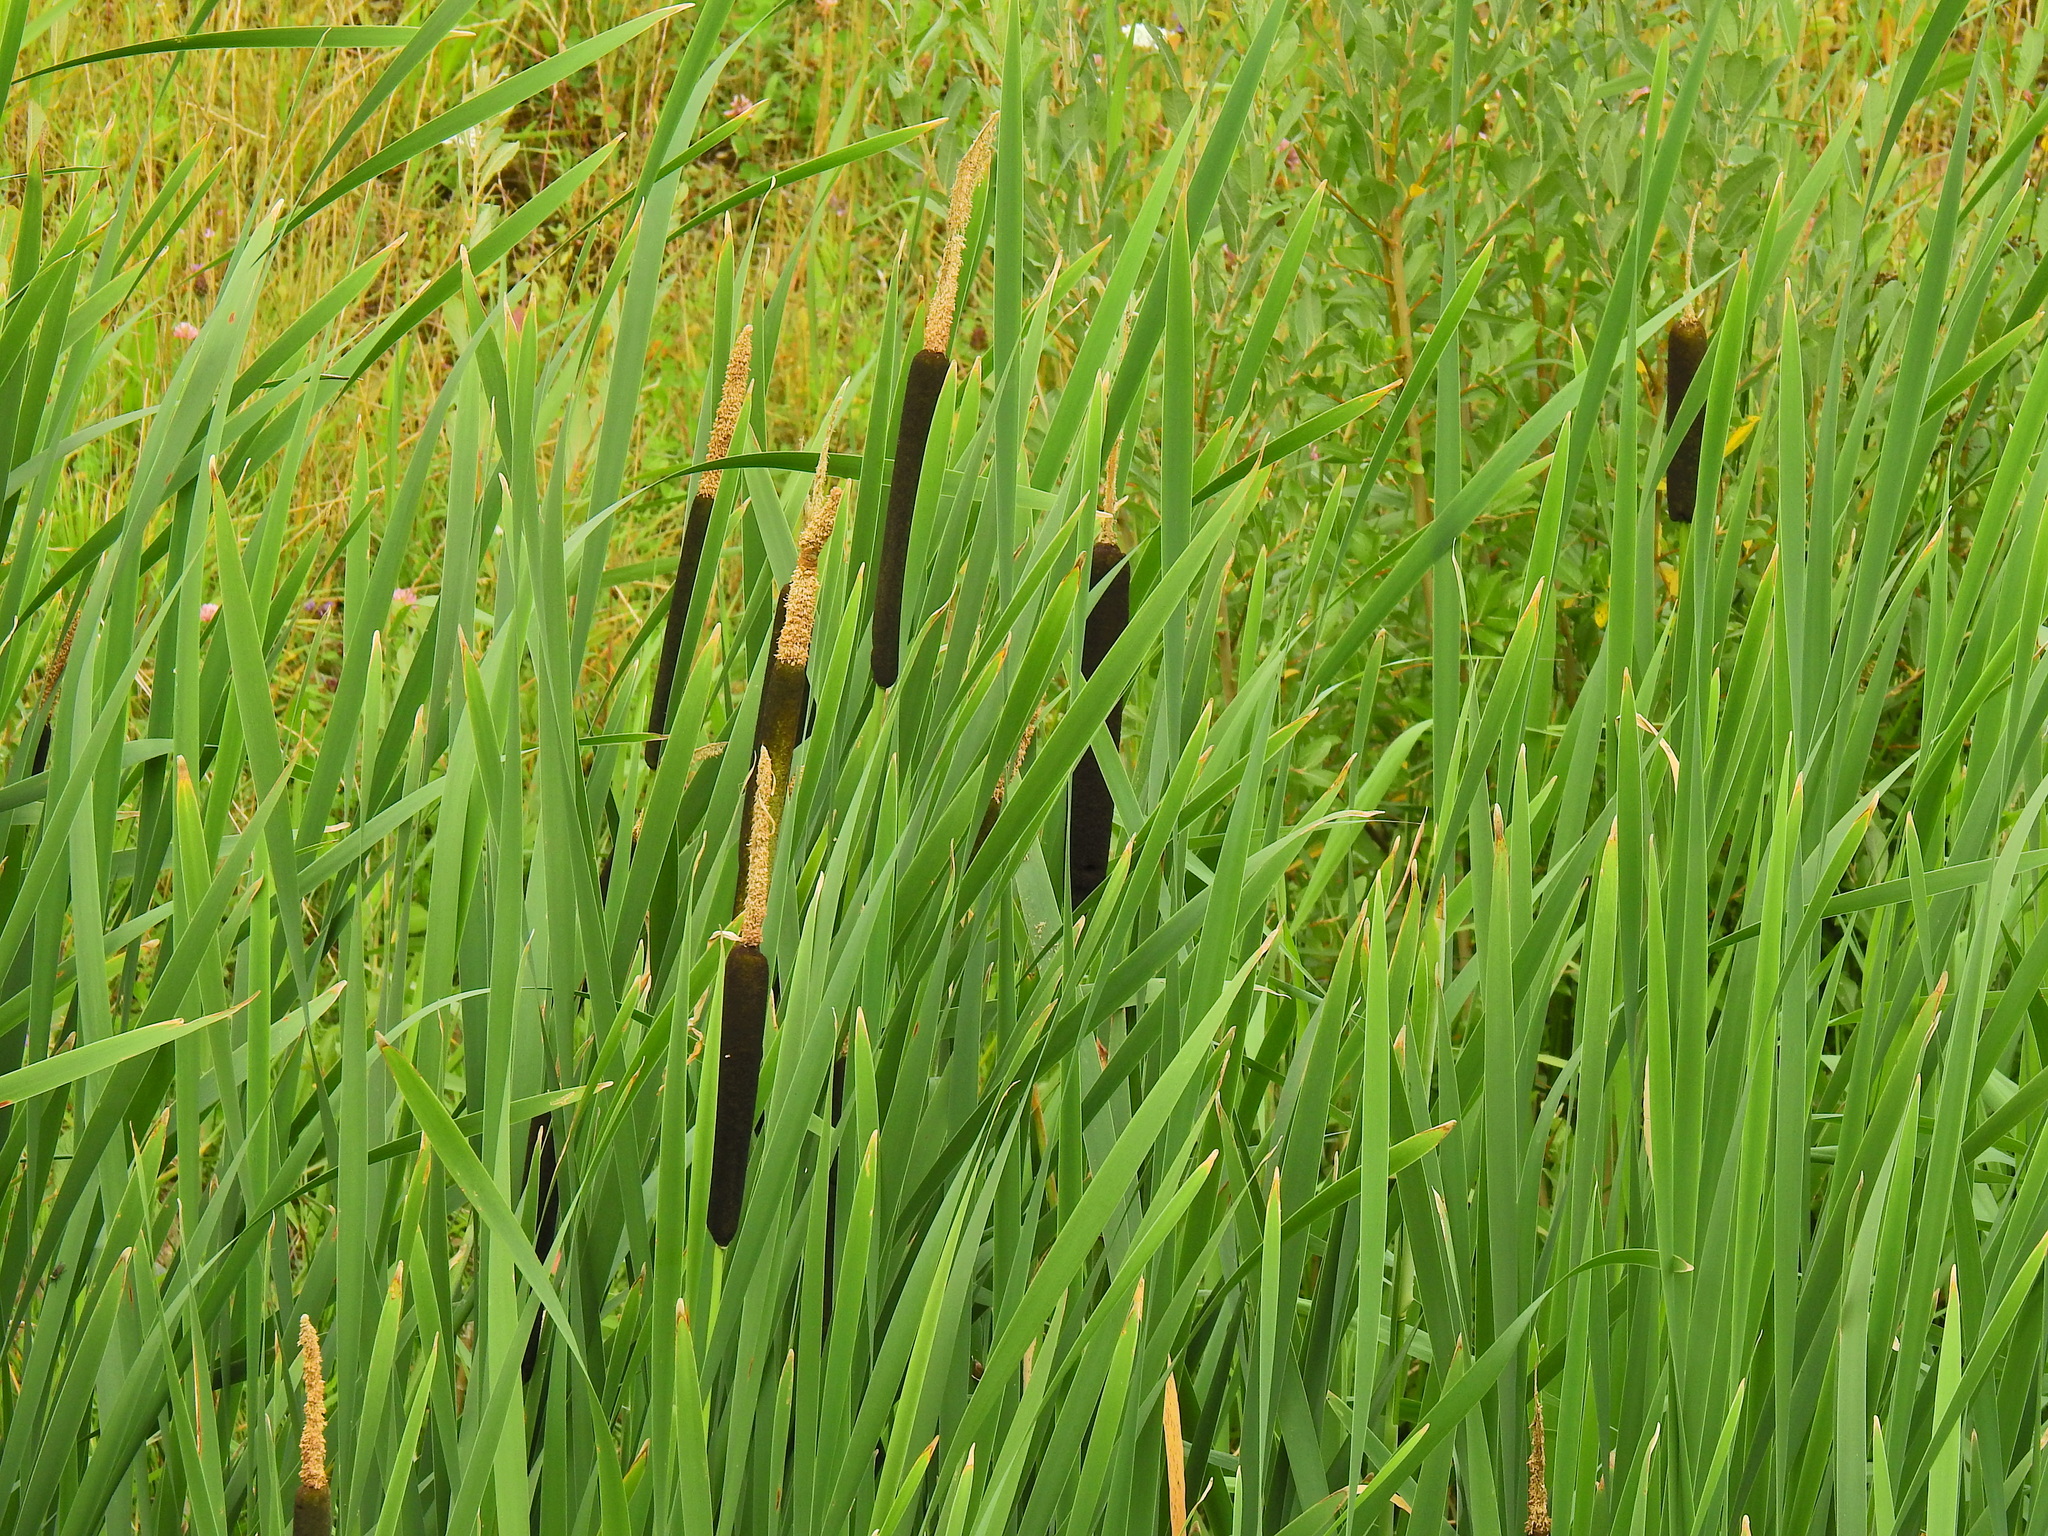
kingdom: Plantae
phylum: Tracheophyta
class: Liliopsida
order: Poales
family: Typhaceae
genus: Typha
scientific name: Typha latifolia
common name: Broadleaf cattail
